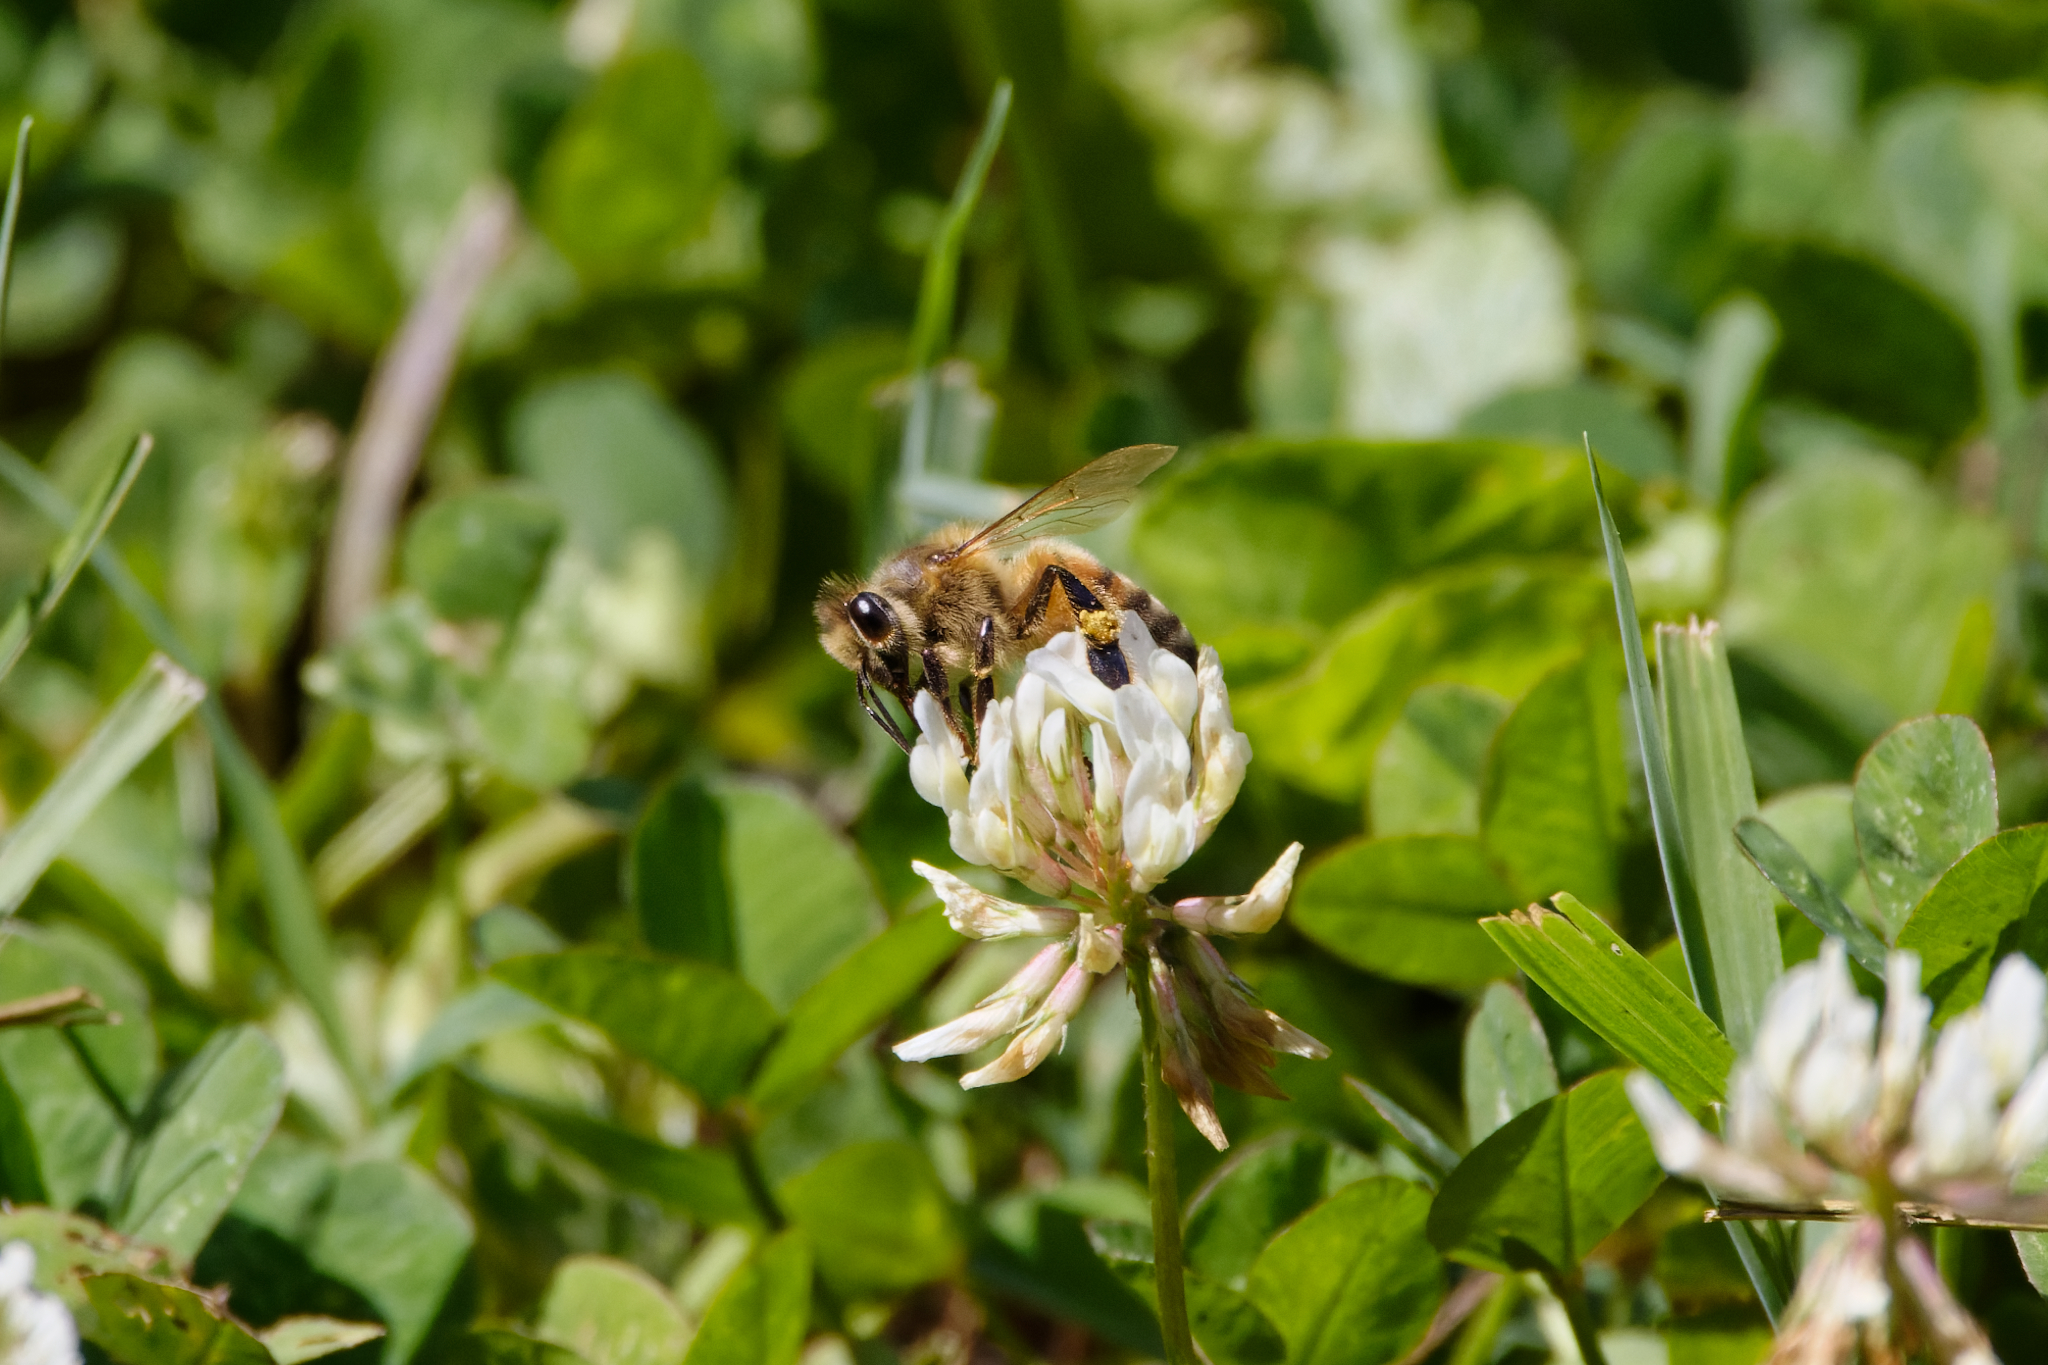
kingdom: Animalia
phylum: Arthropoda
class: Insecta
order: Hymenoptera
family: Apidae
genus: Apis
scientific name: Apis mellifera
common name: Honey bee
